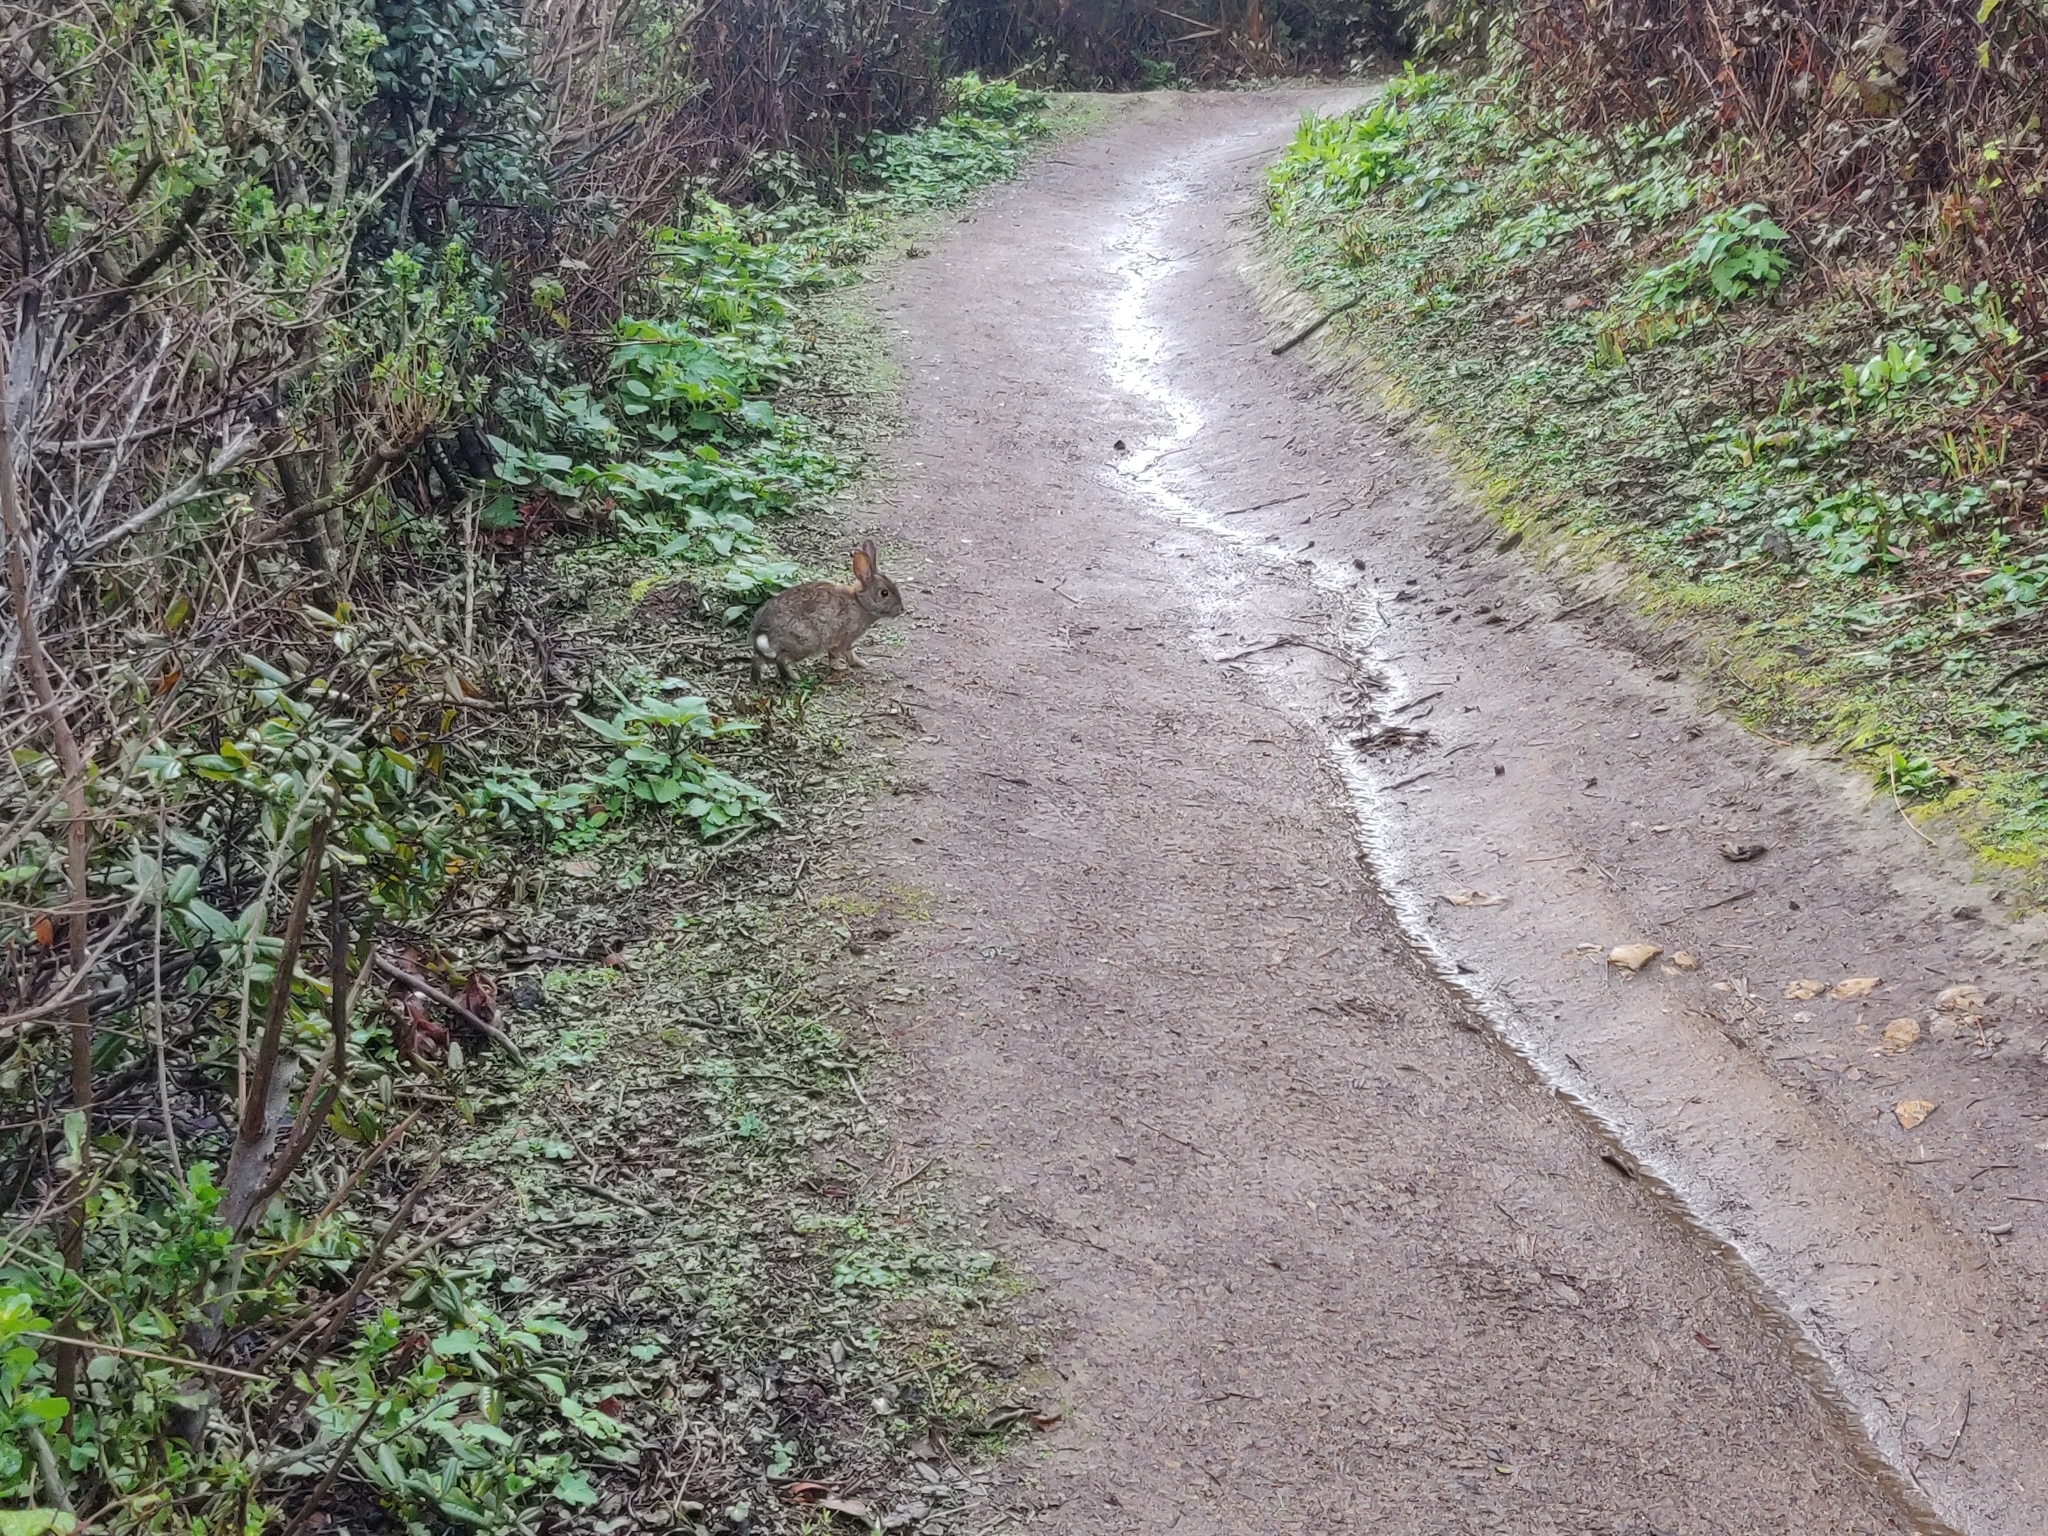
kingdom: Animalia
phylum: Chordata
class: Mammalia
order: Lagomorpha
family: Leporidae
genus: Sylvilagus
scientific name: Sylvilagus bachmani
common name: Brush rabbit
